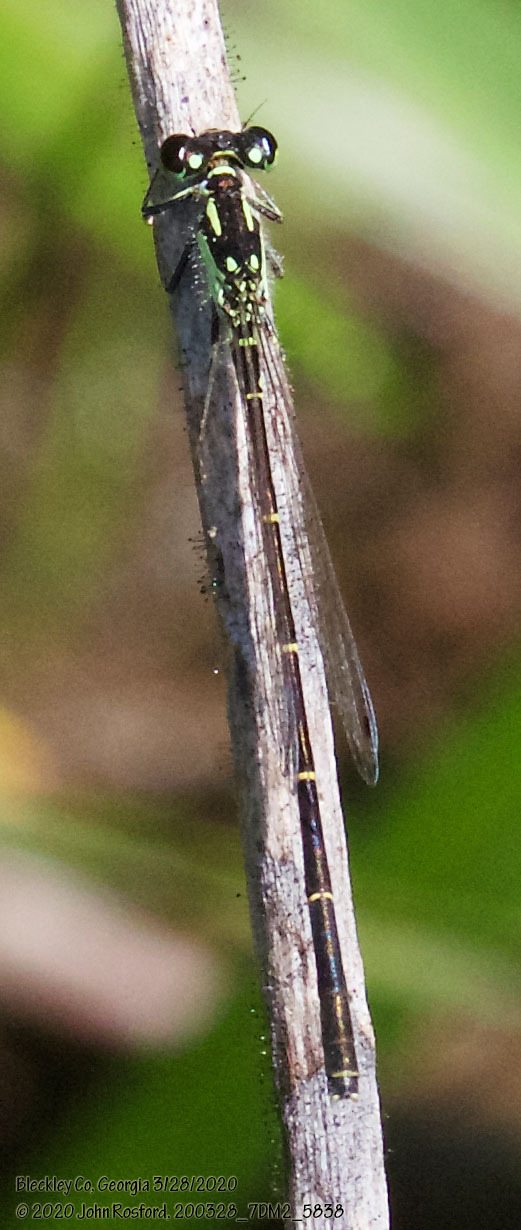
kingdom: Animalia
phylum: Arthropoda
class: Insecta
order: Odonata
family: Coenagrionidae
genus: Ischnura
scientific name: Ischnura posita
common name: Fragile forktail
